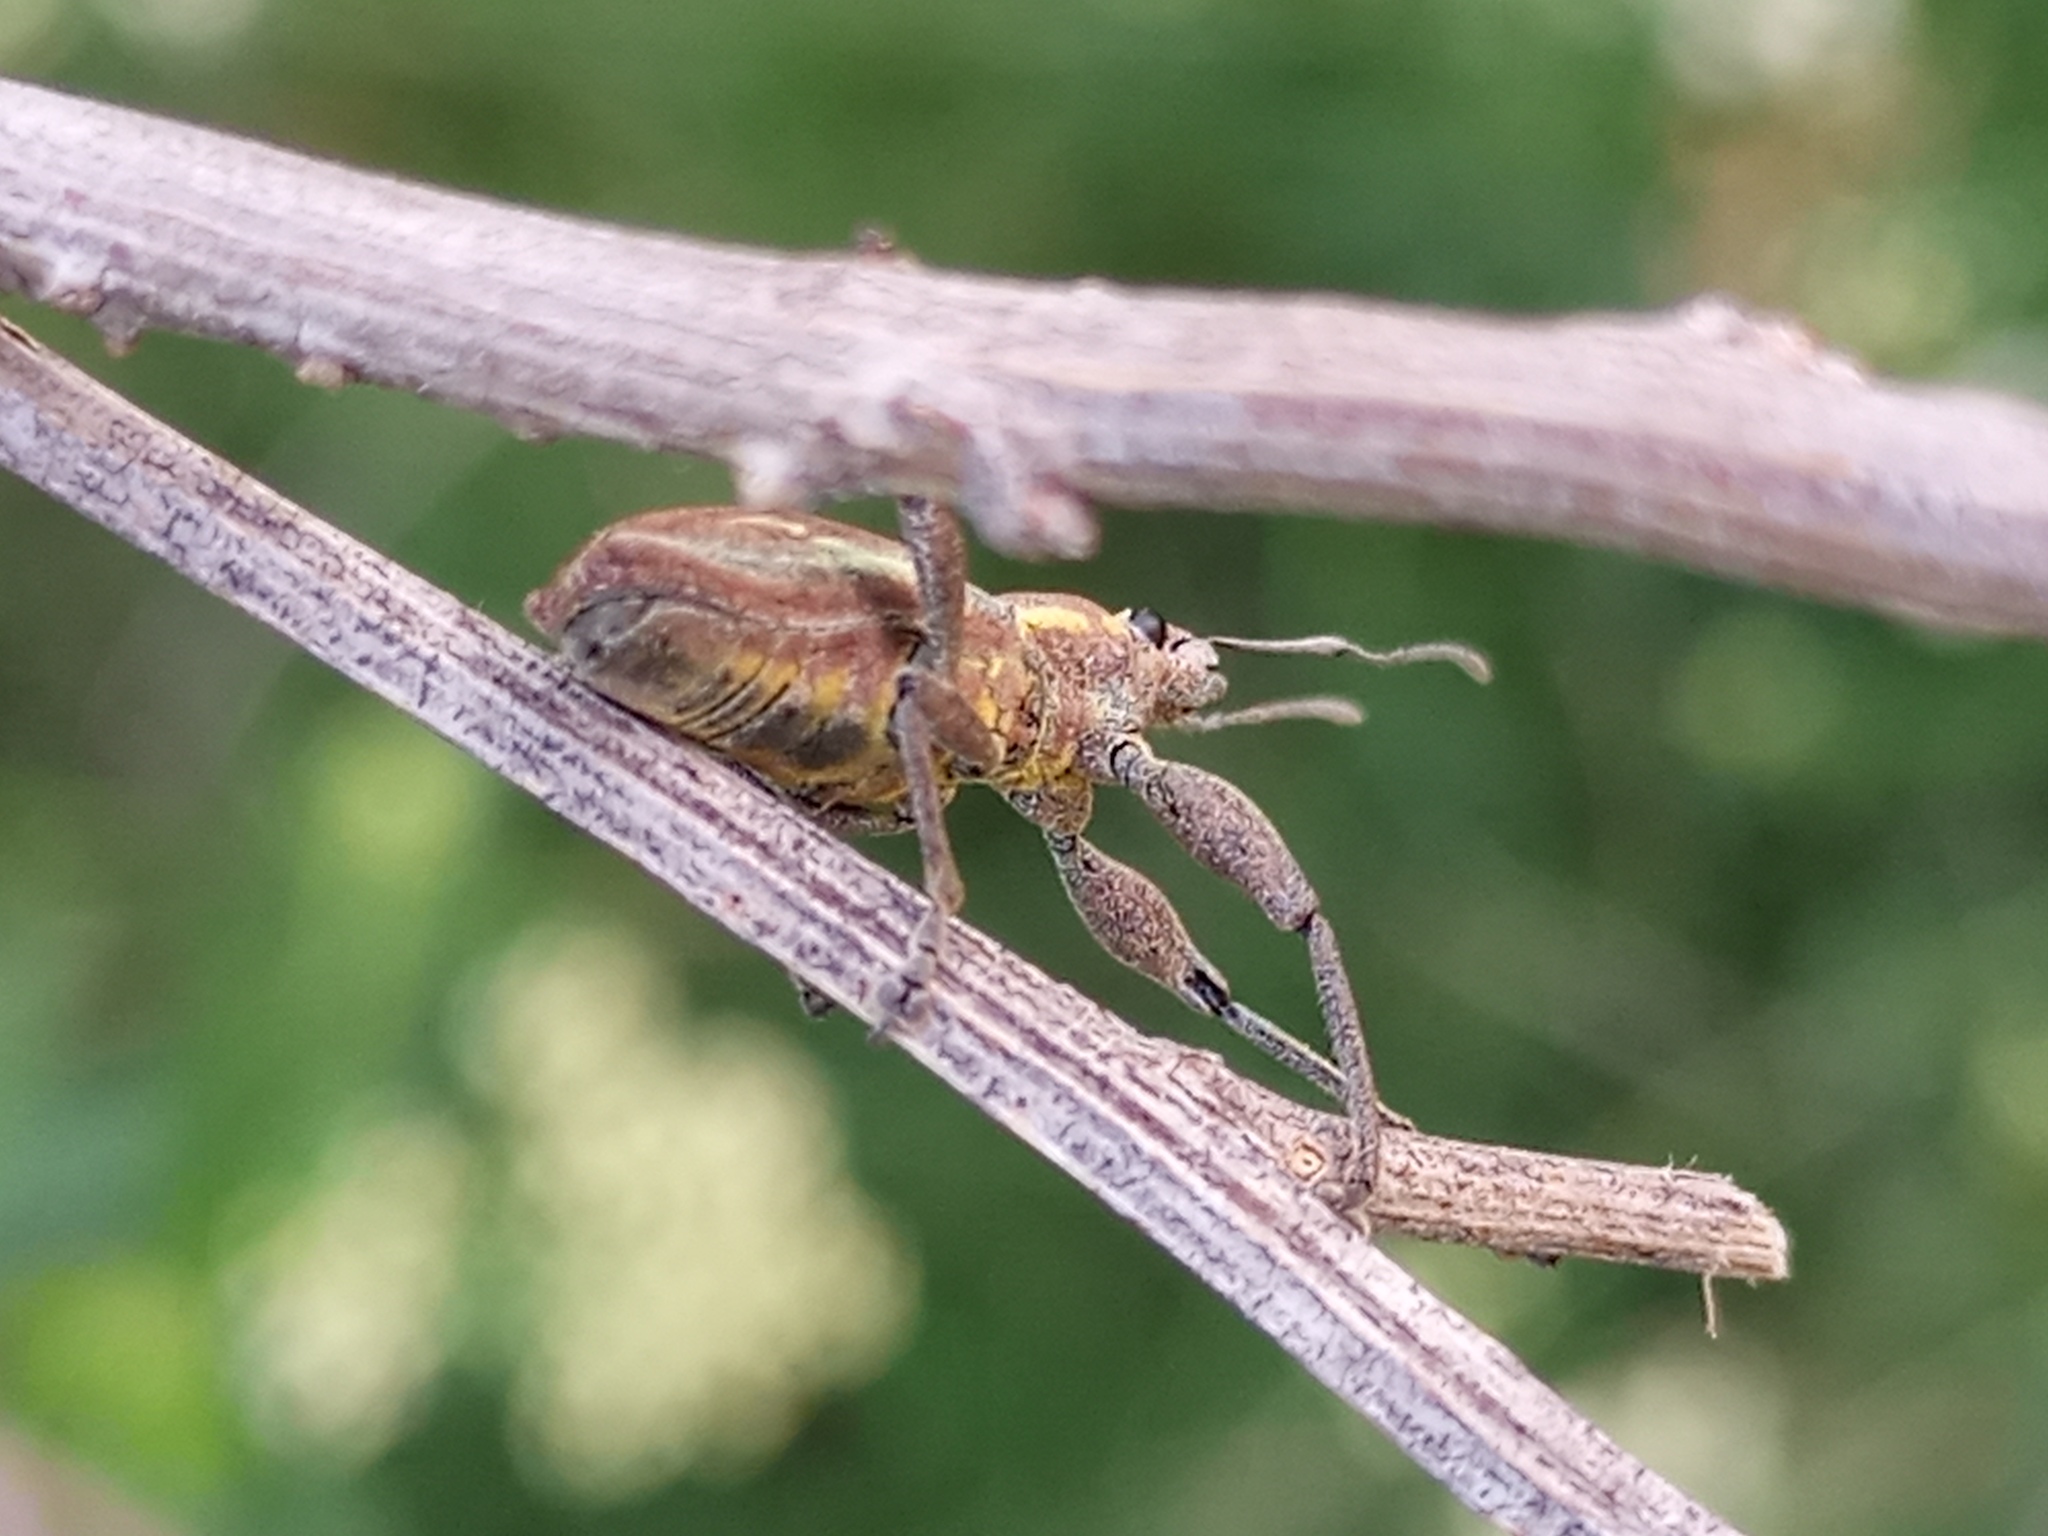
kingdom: Animalia
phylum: Arthropoda
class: Insecta
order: Coleoptera
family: Curculionidae
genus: Naupactus
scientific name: Naupactus xanthographus
